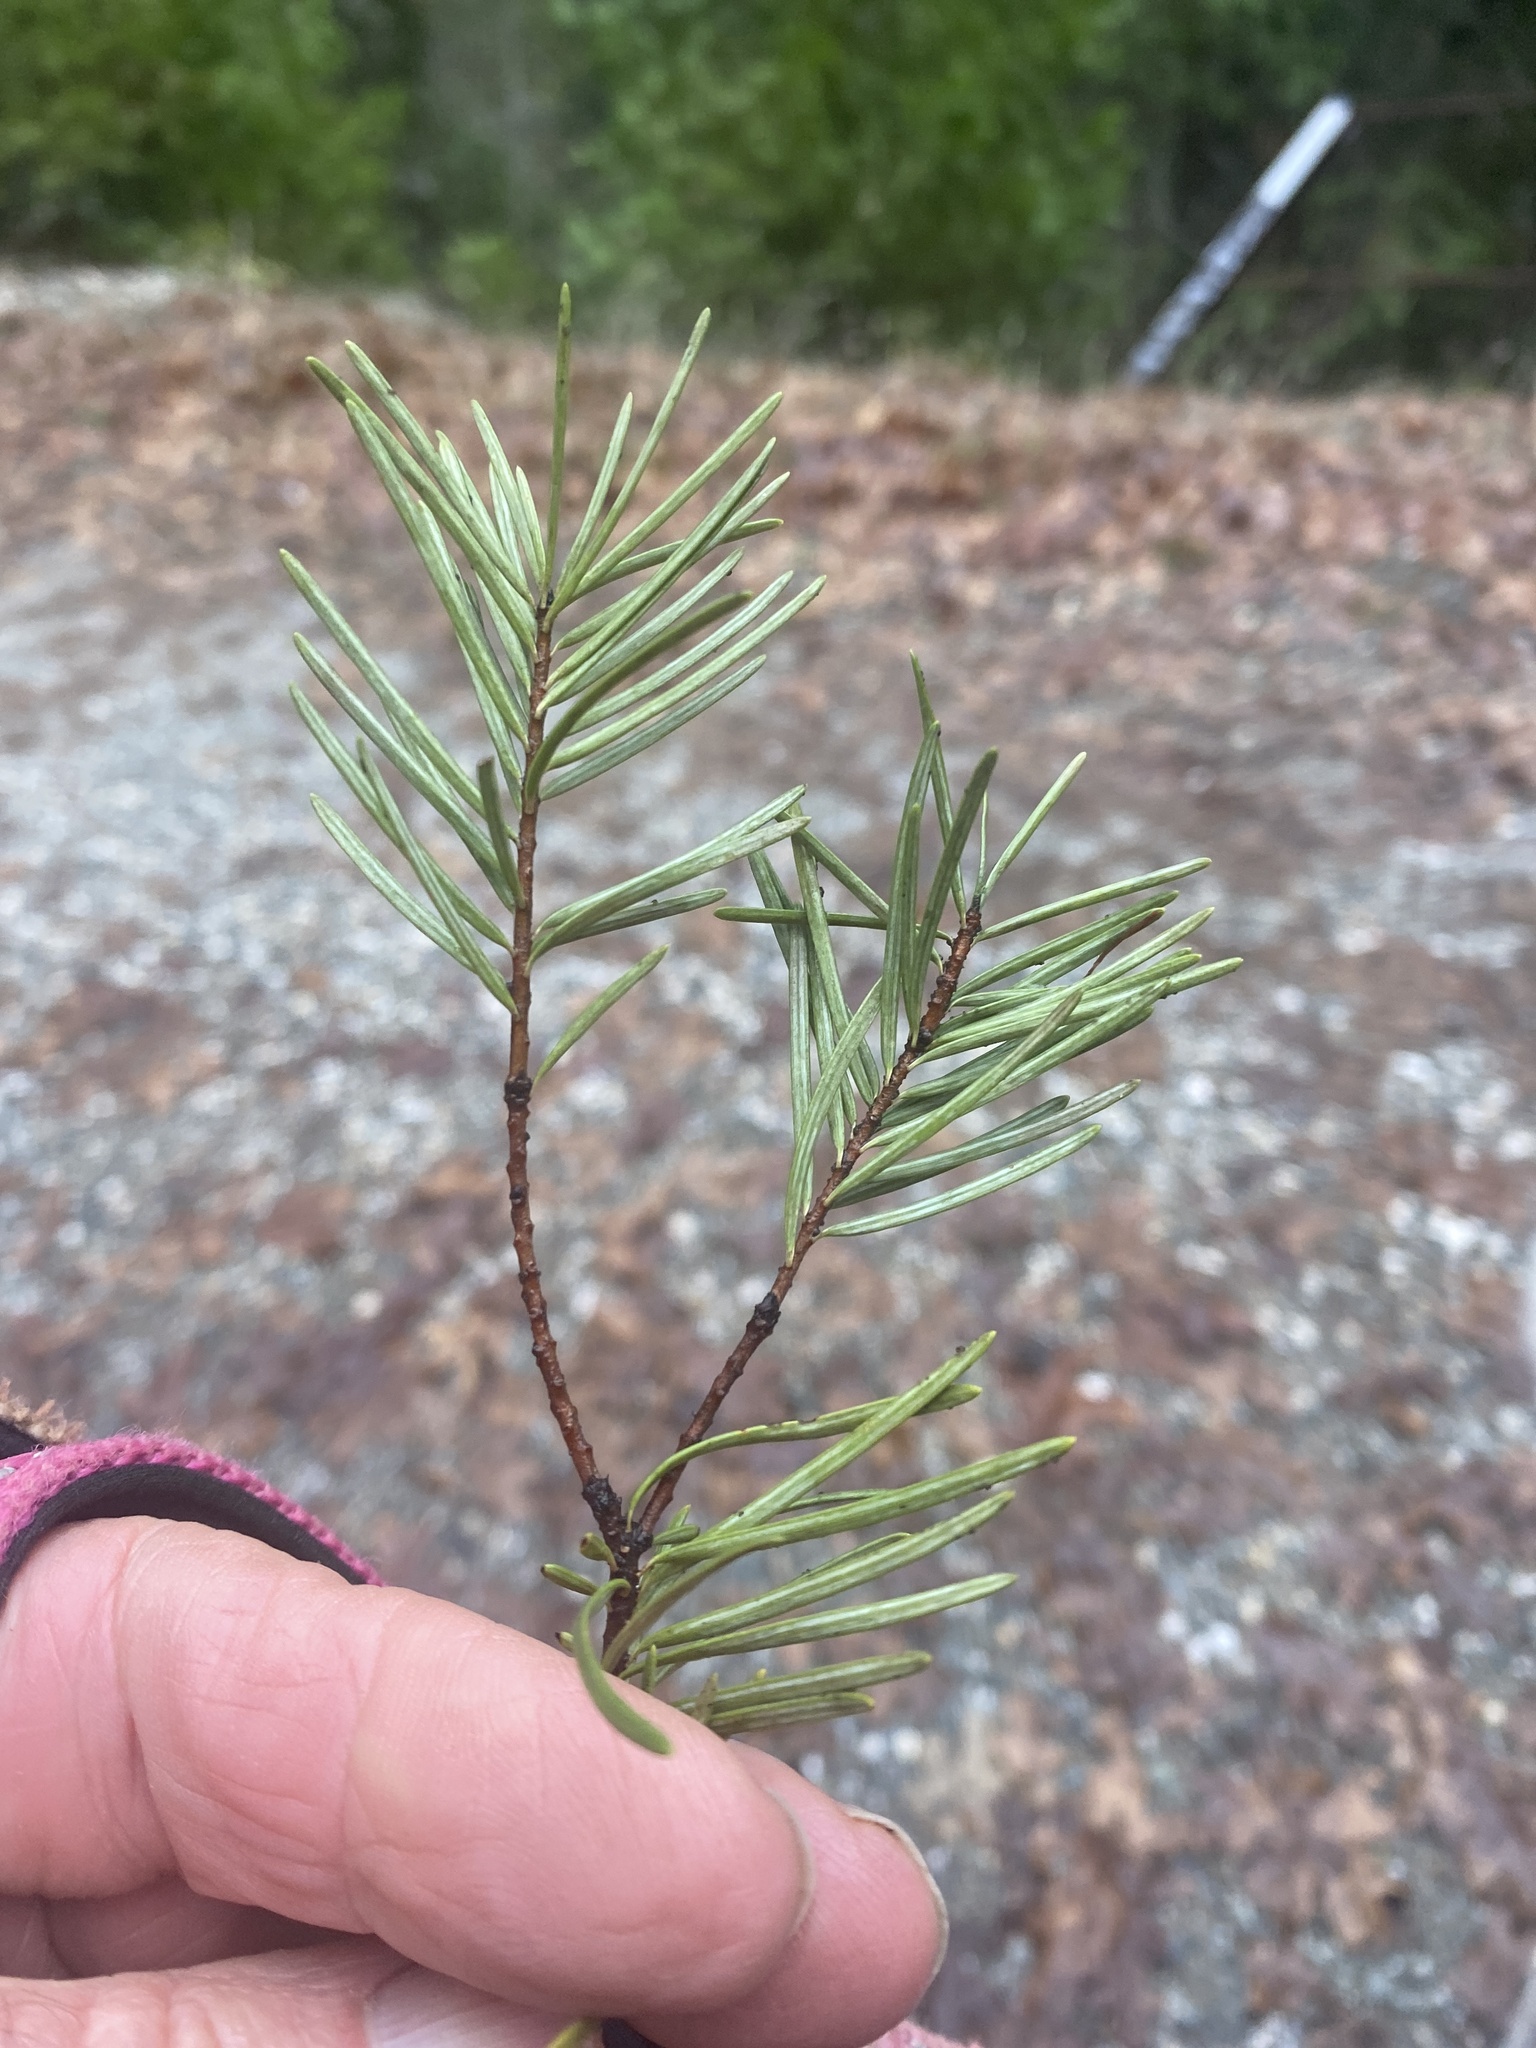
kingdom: Plantae
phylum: Tracheophyta
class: Pinopsida
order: Pinales
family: Pinaceae
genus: Pseudotsuga
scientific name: Pseudotsuga menziesii
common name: Douglas fir
